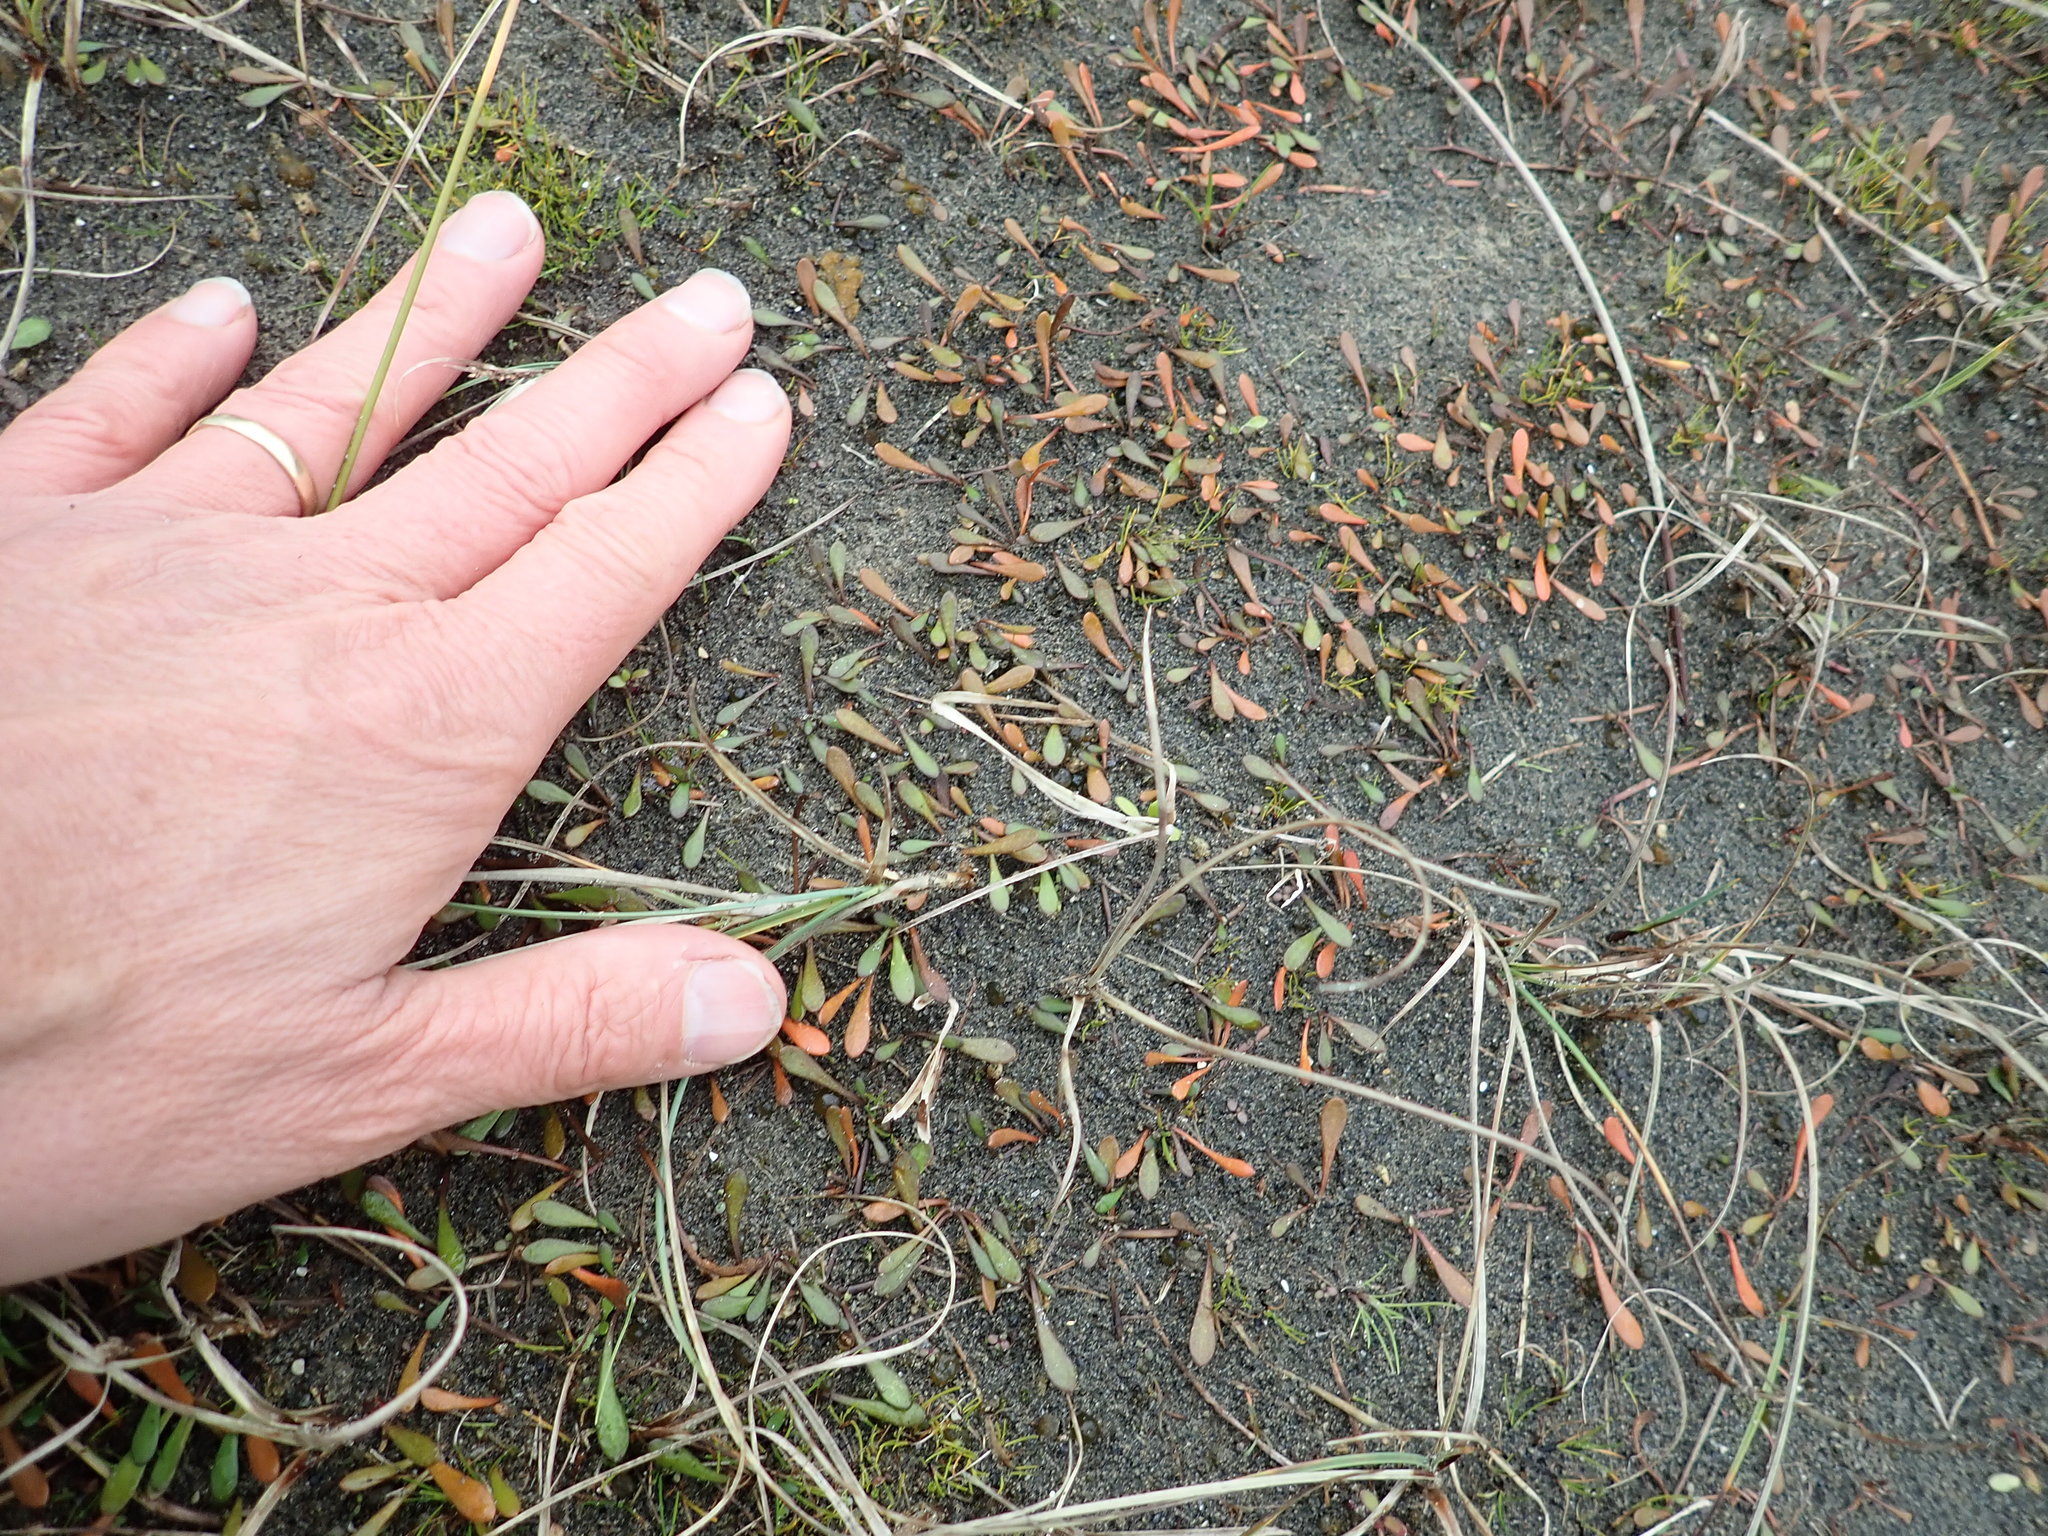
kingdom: Plantae
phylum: Tracheophyta
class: Magnoliopsida
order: Asterales
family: Goodeniaceae
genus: Goodenia
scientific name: Goodenia radicans
